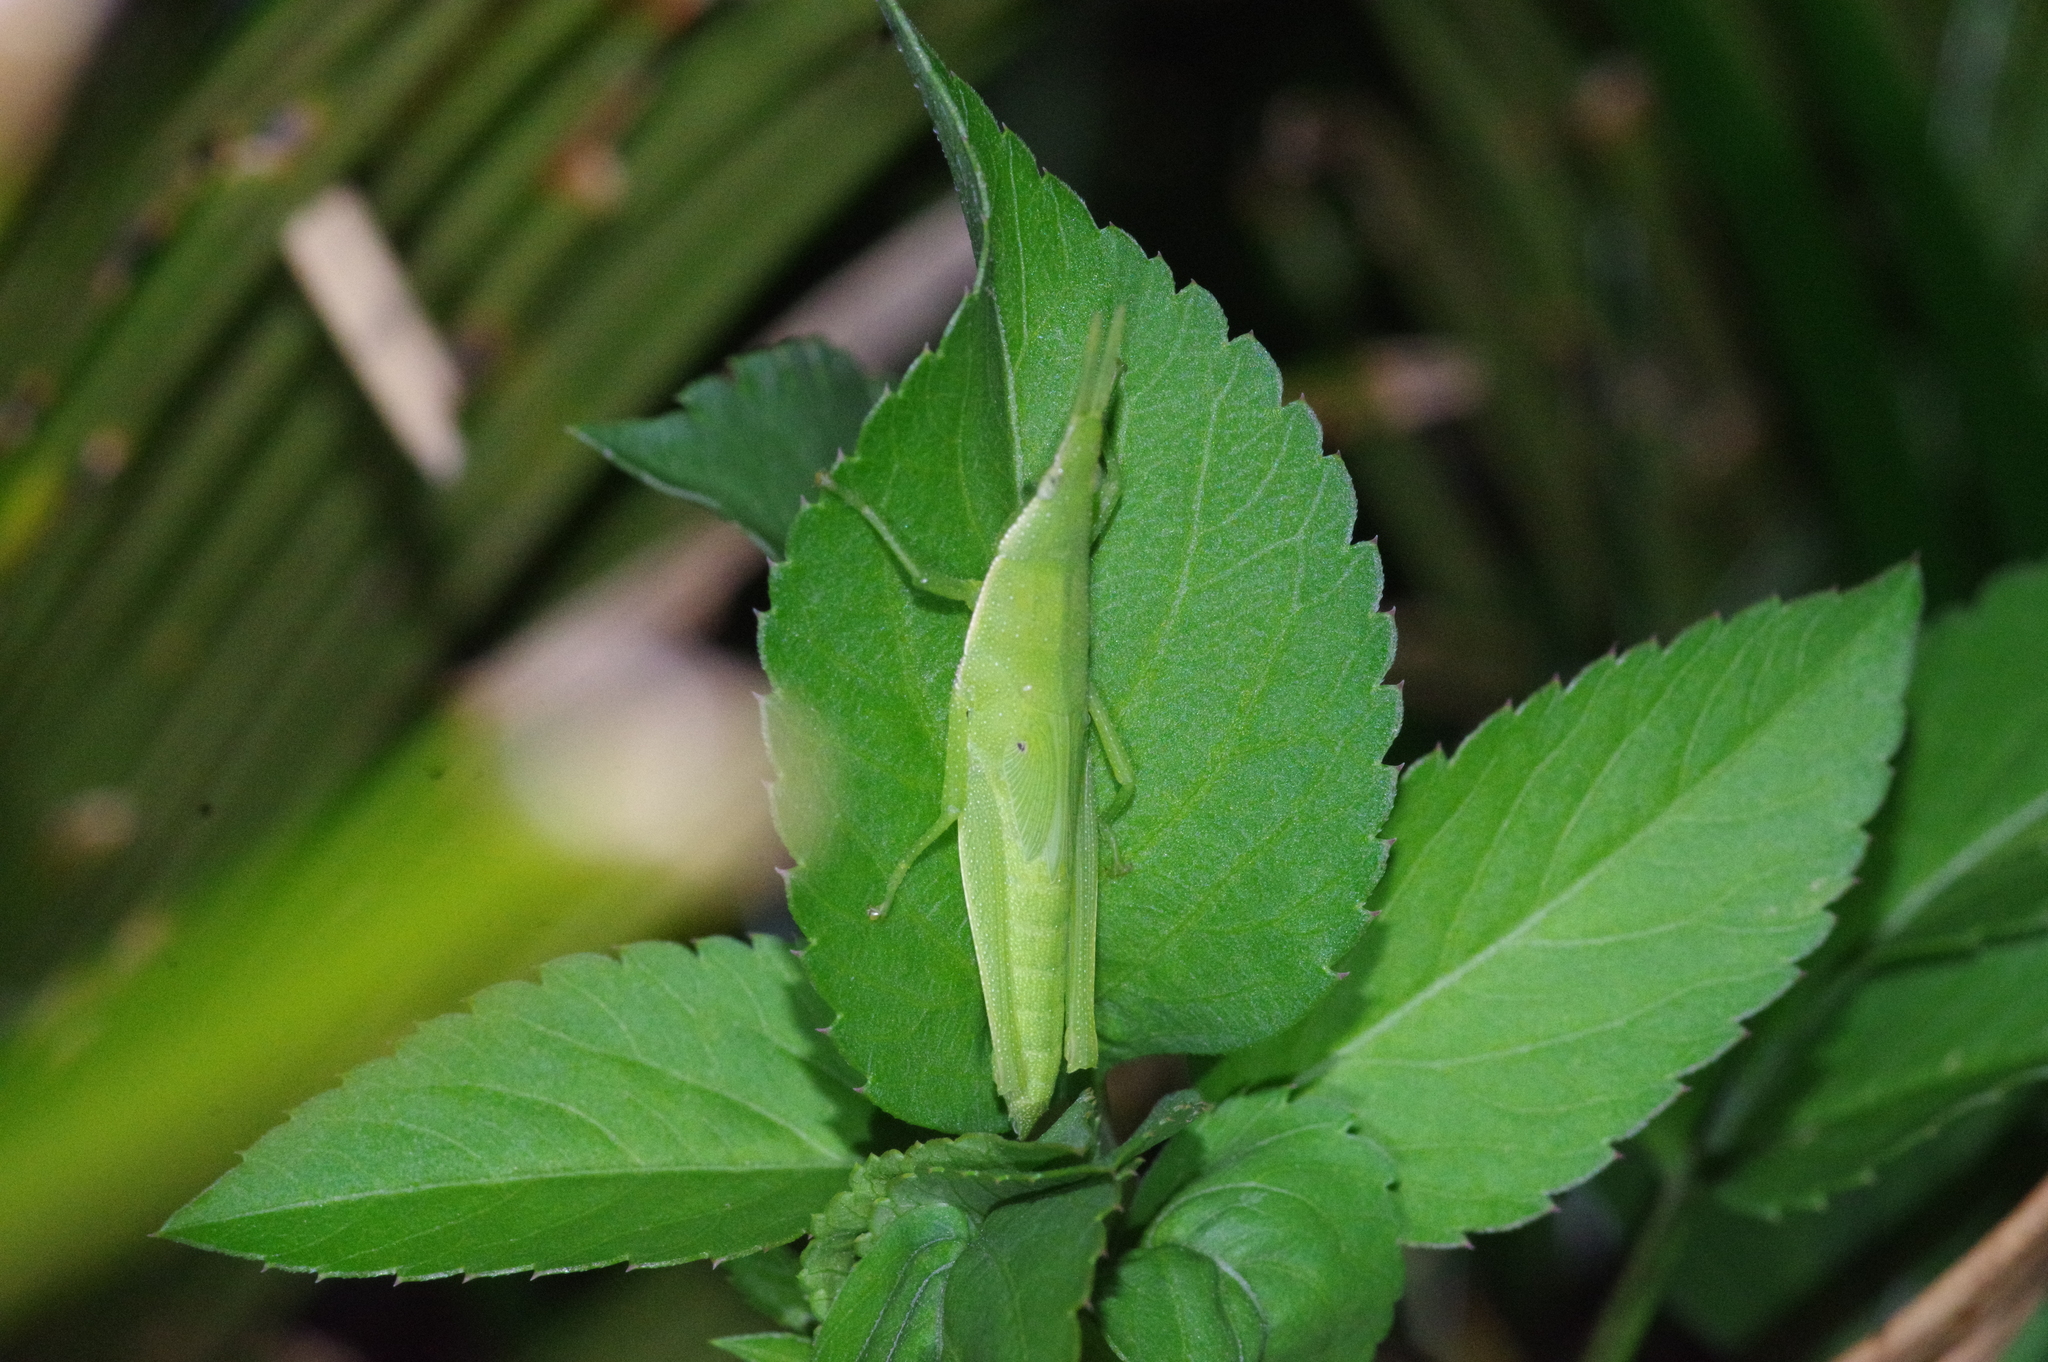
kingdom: Animalia
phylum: Arthropoda
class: Insecta
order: Orthoptera
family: Pyrgomorphidae
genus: Atractomorpha
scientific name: Atractomorpha sinensis
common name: Pinkwinged grasshopper
